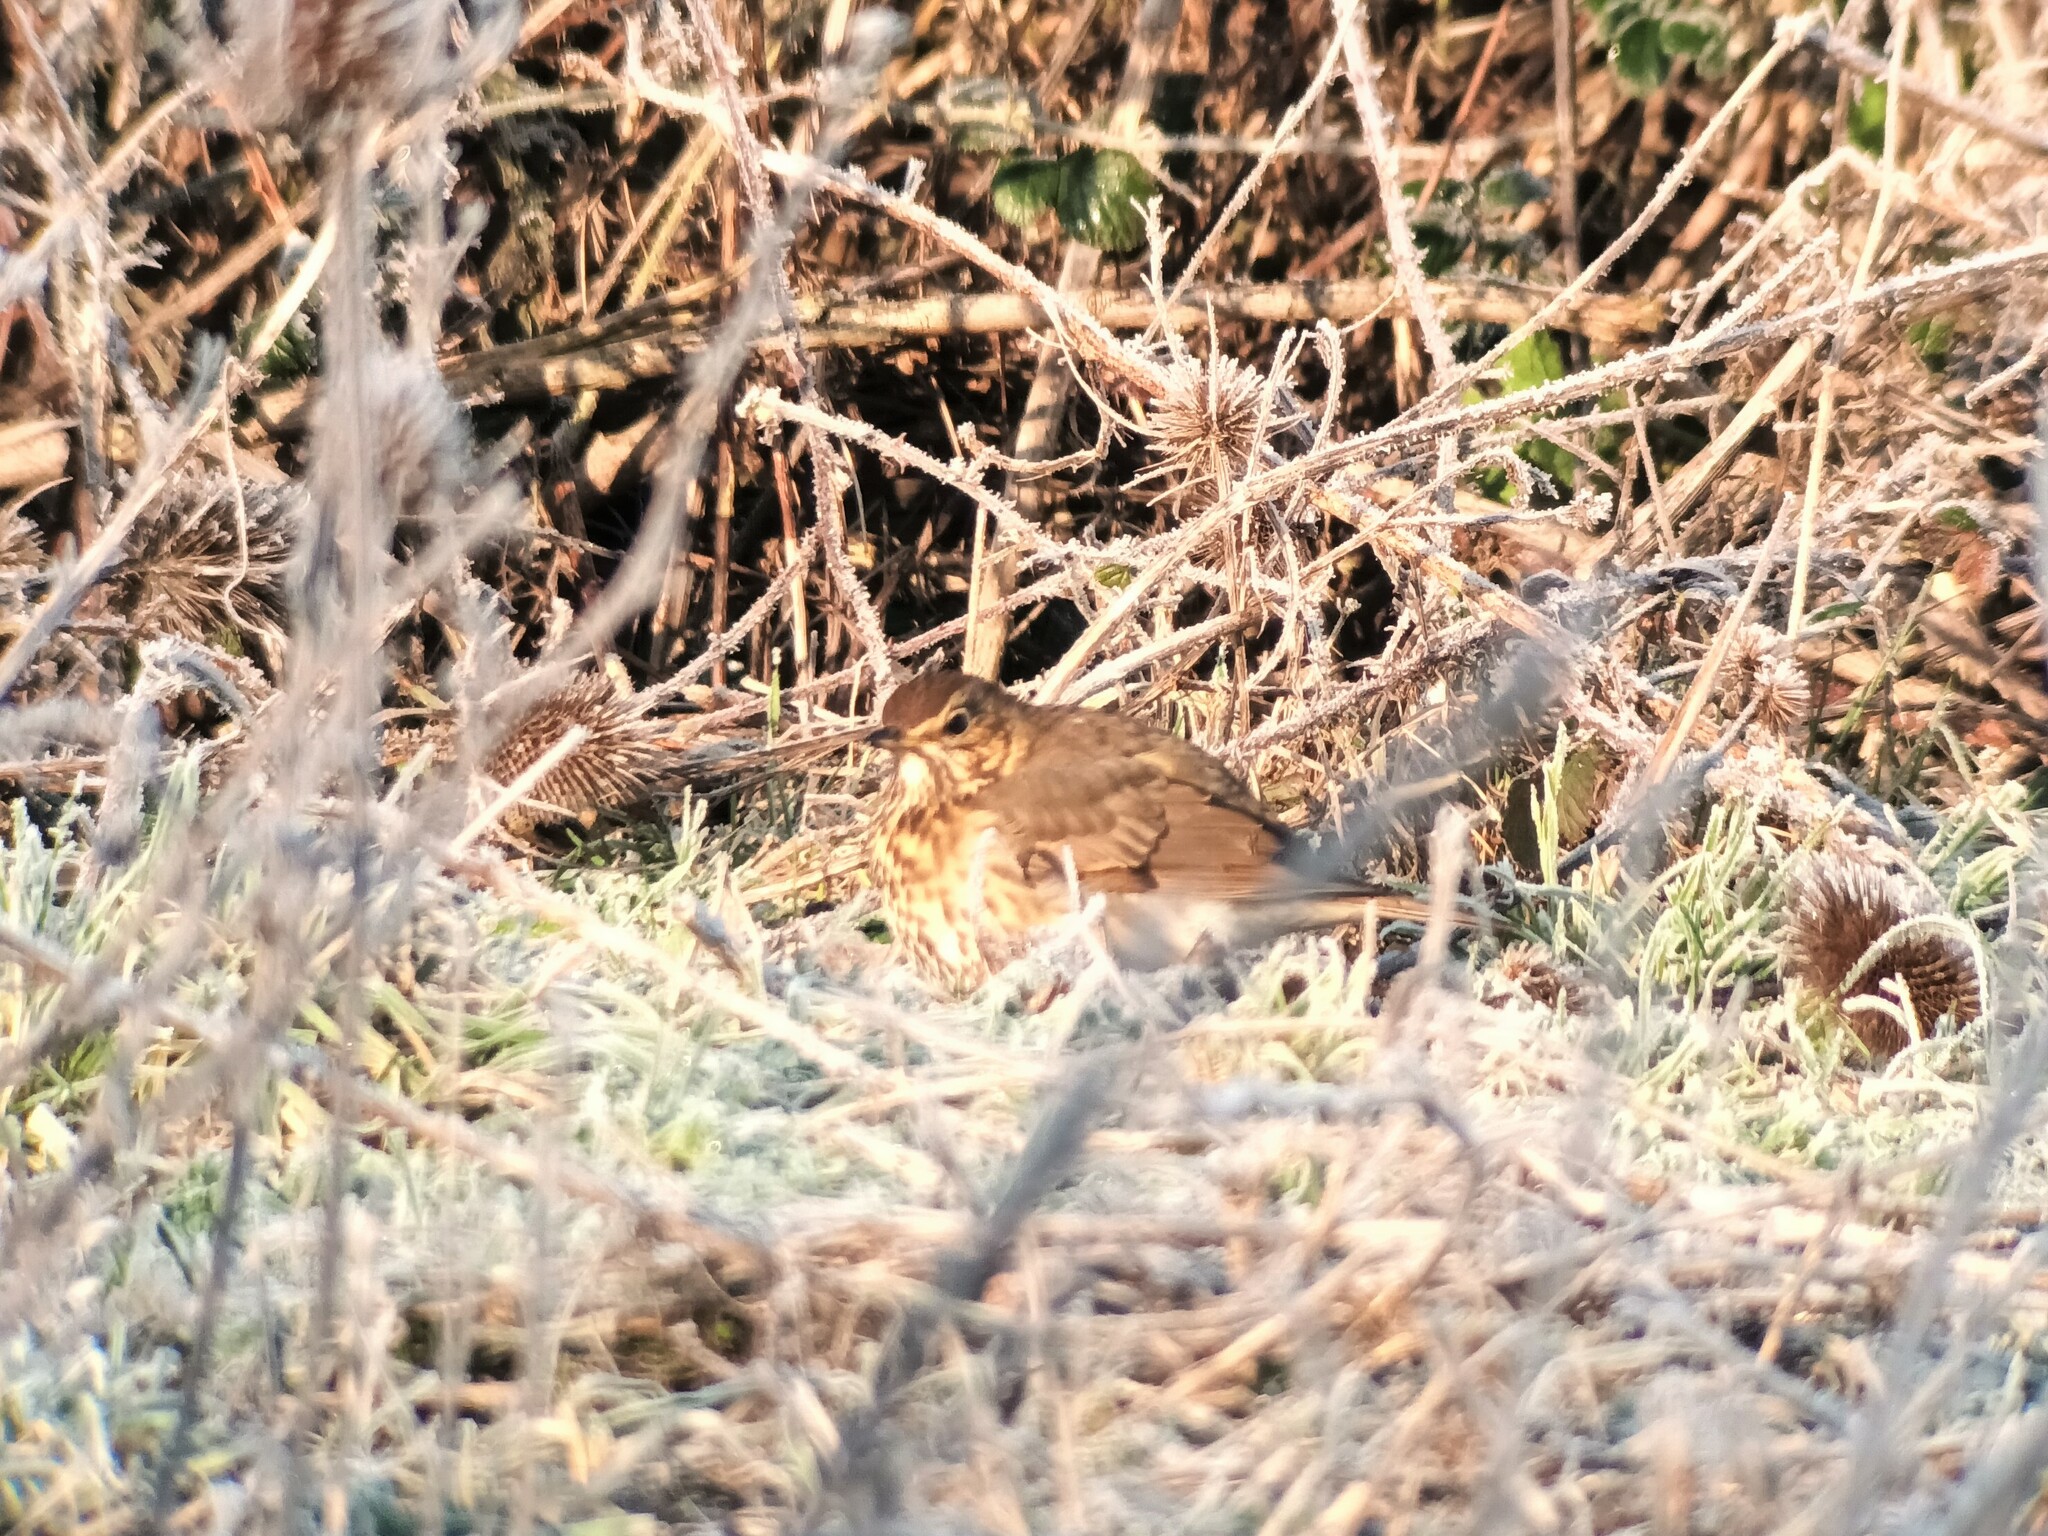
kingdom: Animalia
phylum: Chordata
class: Aves
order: Passeriformes
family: Turdidae
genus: Turdus
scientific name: Turdus philomelos
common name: Song thrush
